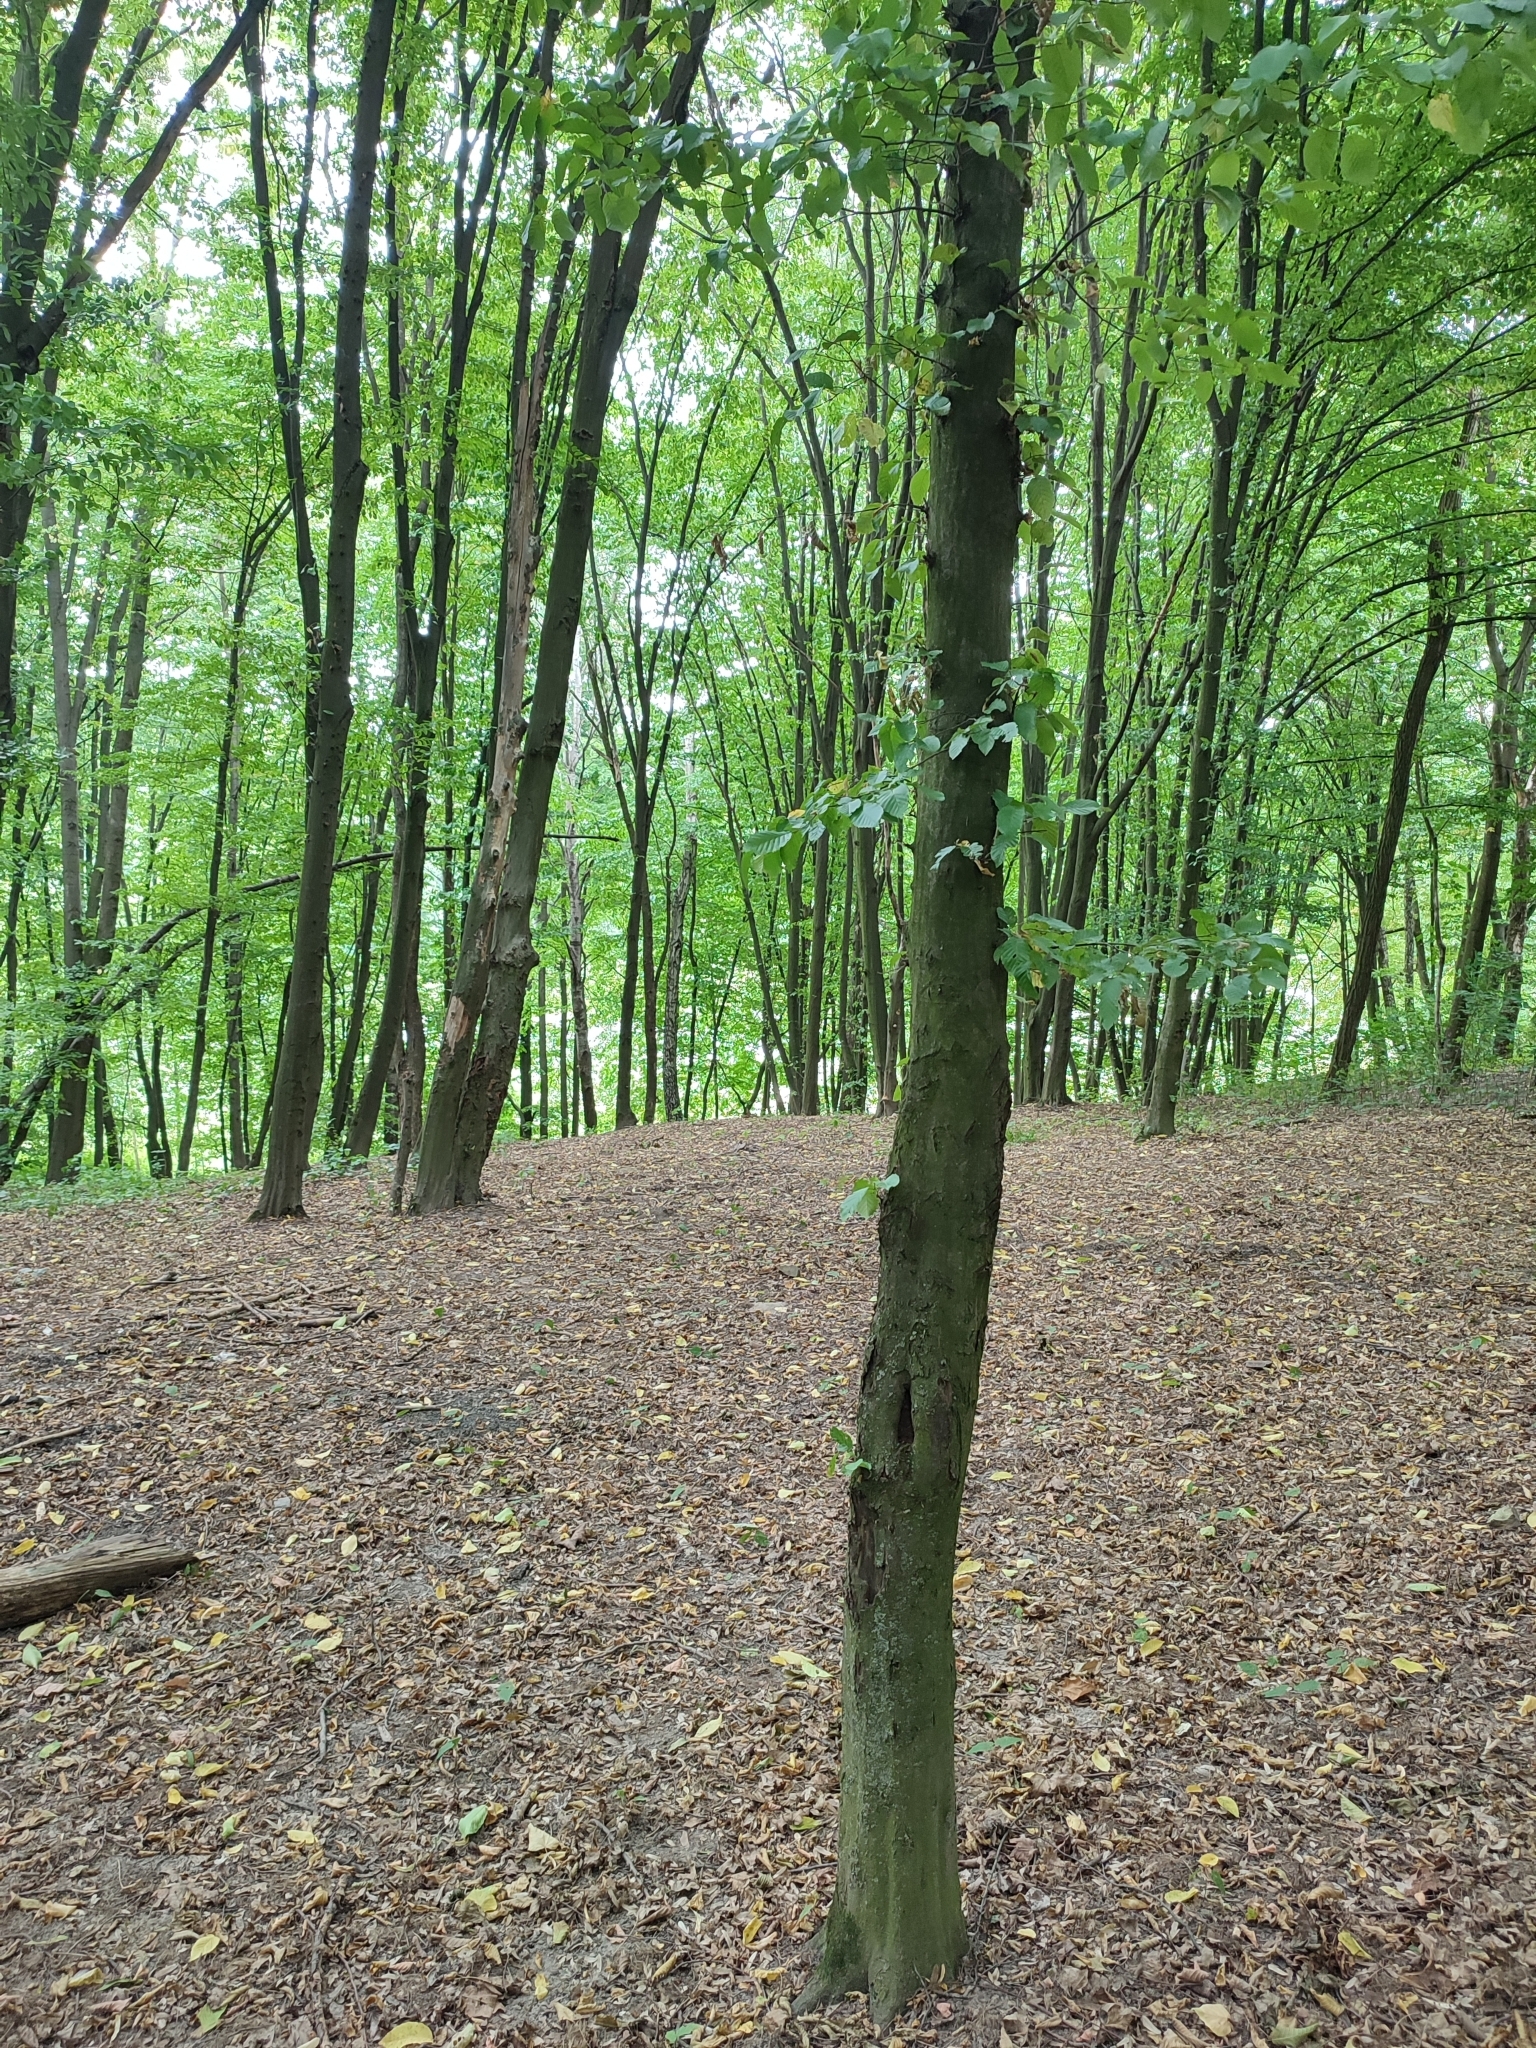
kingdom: Plantae
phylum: Tracheophyta
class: Magnoliopsida
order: Fagales
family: Betulaceae
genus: Carpinus
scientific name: Carpinus betulus
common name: Hornbeam
